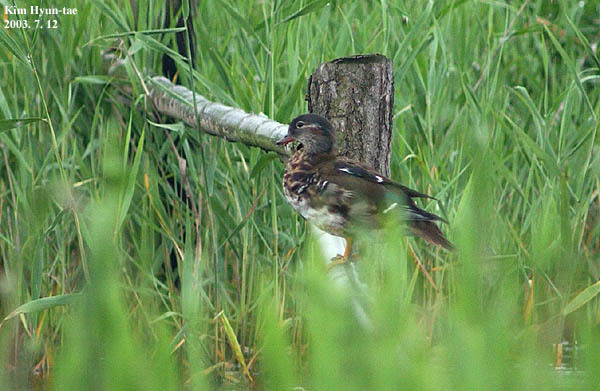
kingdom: Animalia
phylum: Chordata
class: Aves
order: Anseriformes
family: Anatidae
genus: Aix
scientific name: Aix galericulata
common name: Mandarin duck
